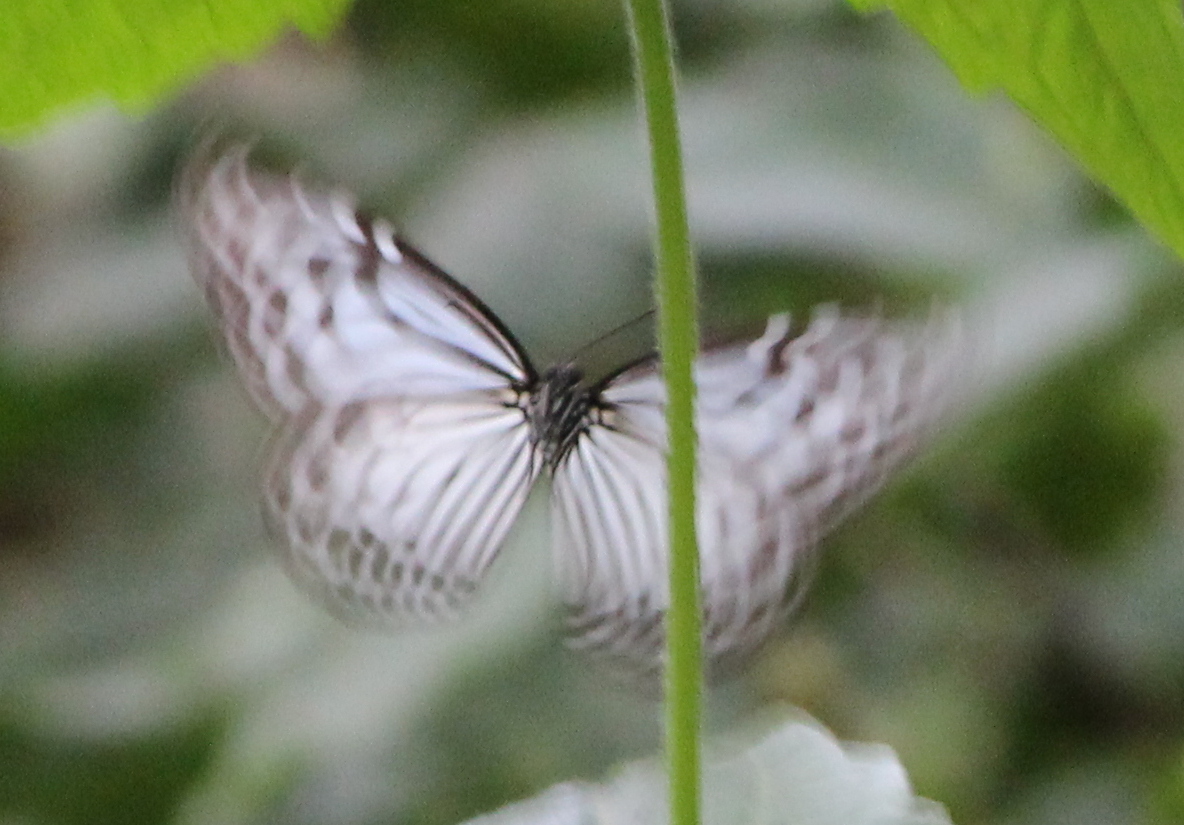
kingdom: Animalia
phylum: Arthropoda
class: Insecta
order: Lepidoptera
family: Nymphalidae
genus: Parantica
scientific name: Parantica aglea
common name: Glassy tiger
